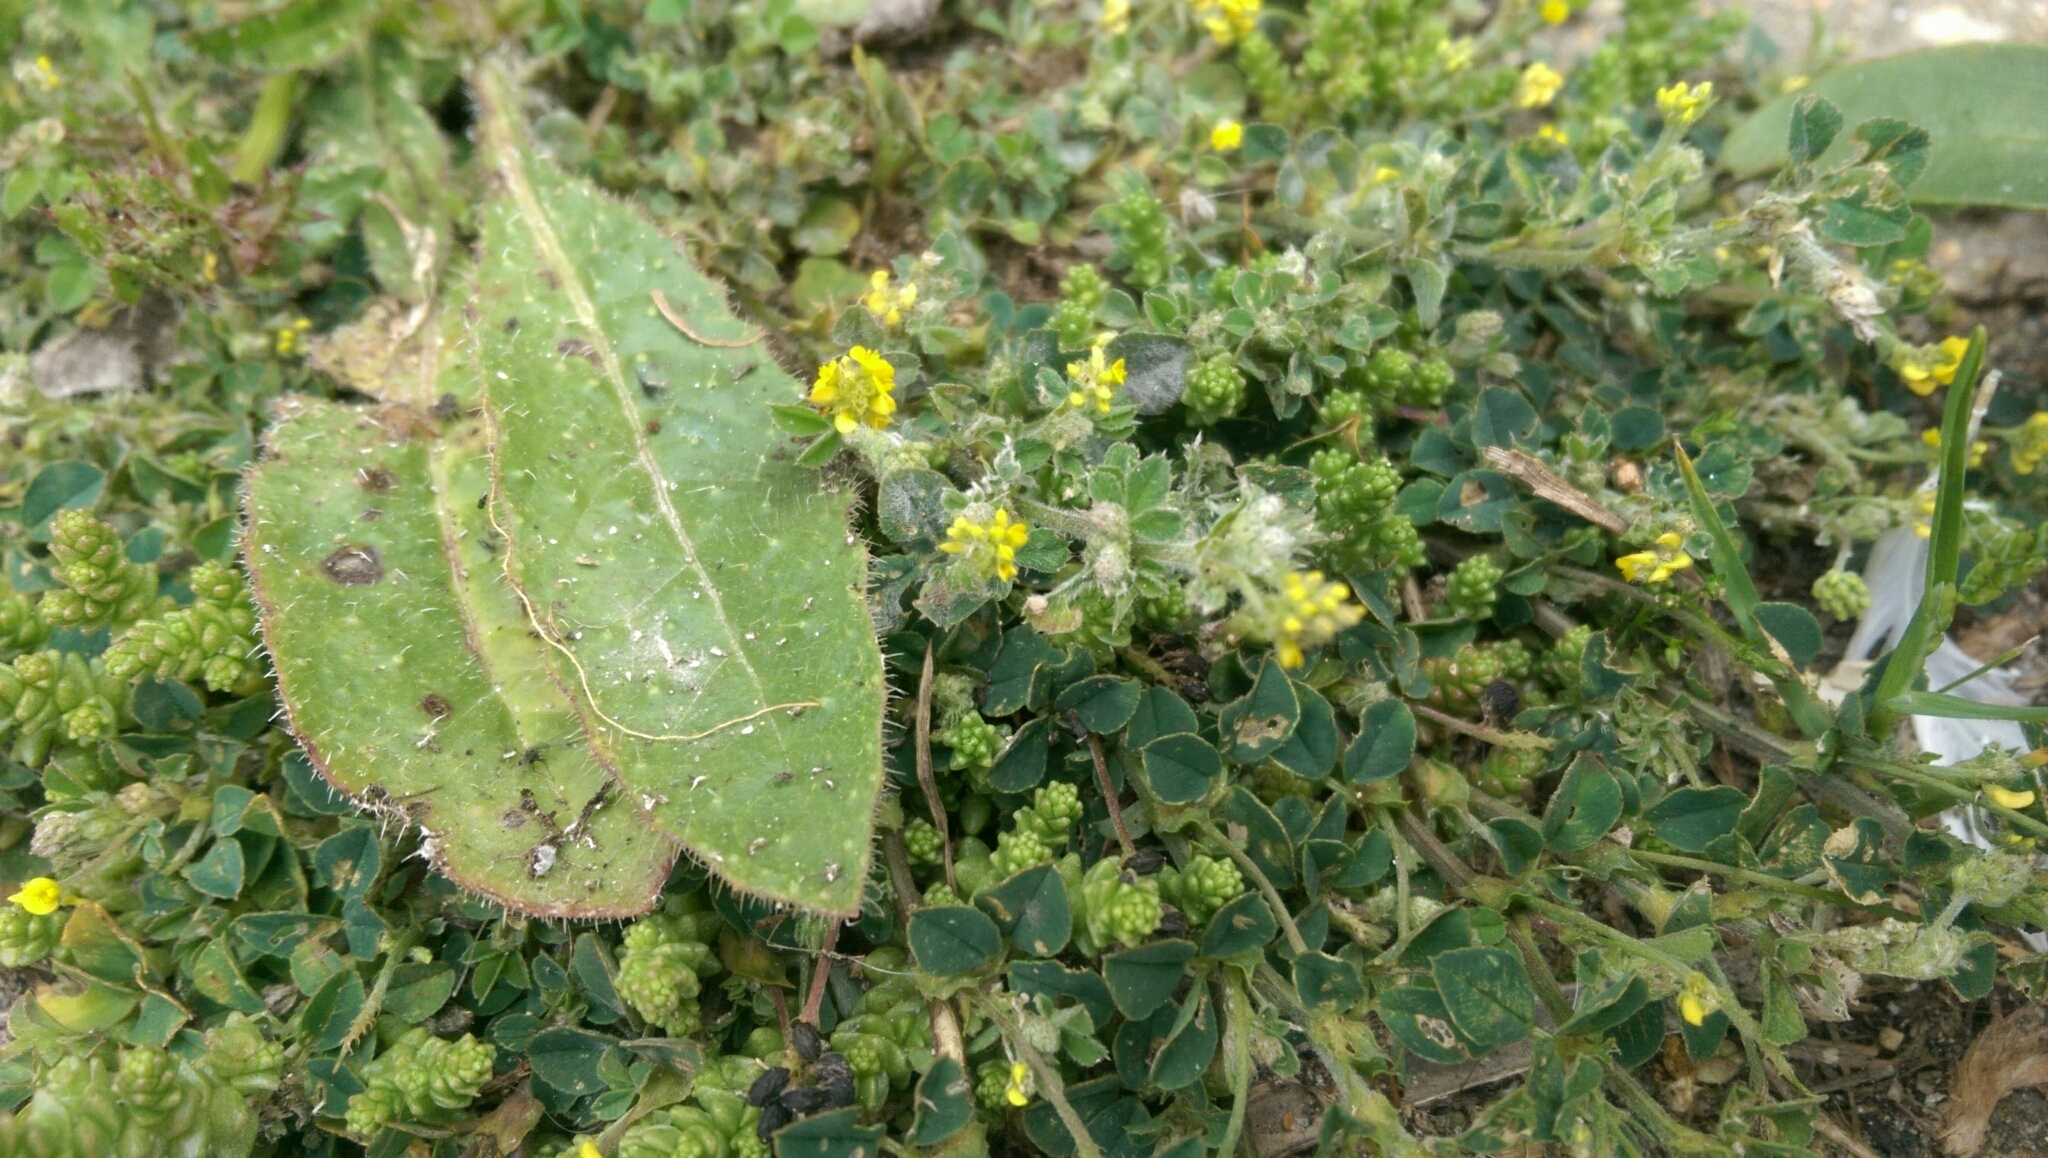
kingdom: Plantae
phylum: Tracheophyta
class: Magnoliopsida
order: Fabales
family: Fabaceae
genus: Medicago
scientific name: Medicago lupulina
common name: Black medick
